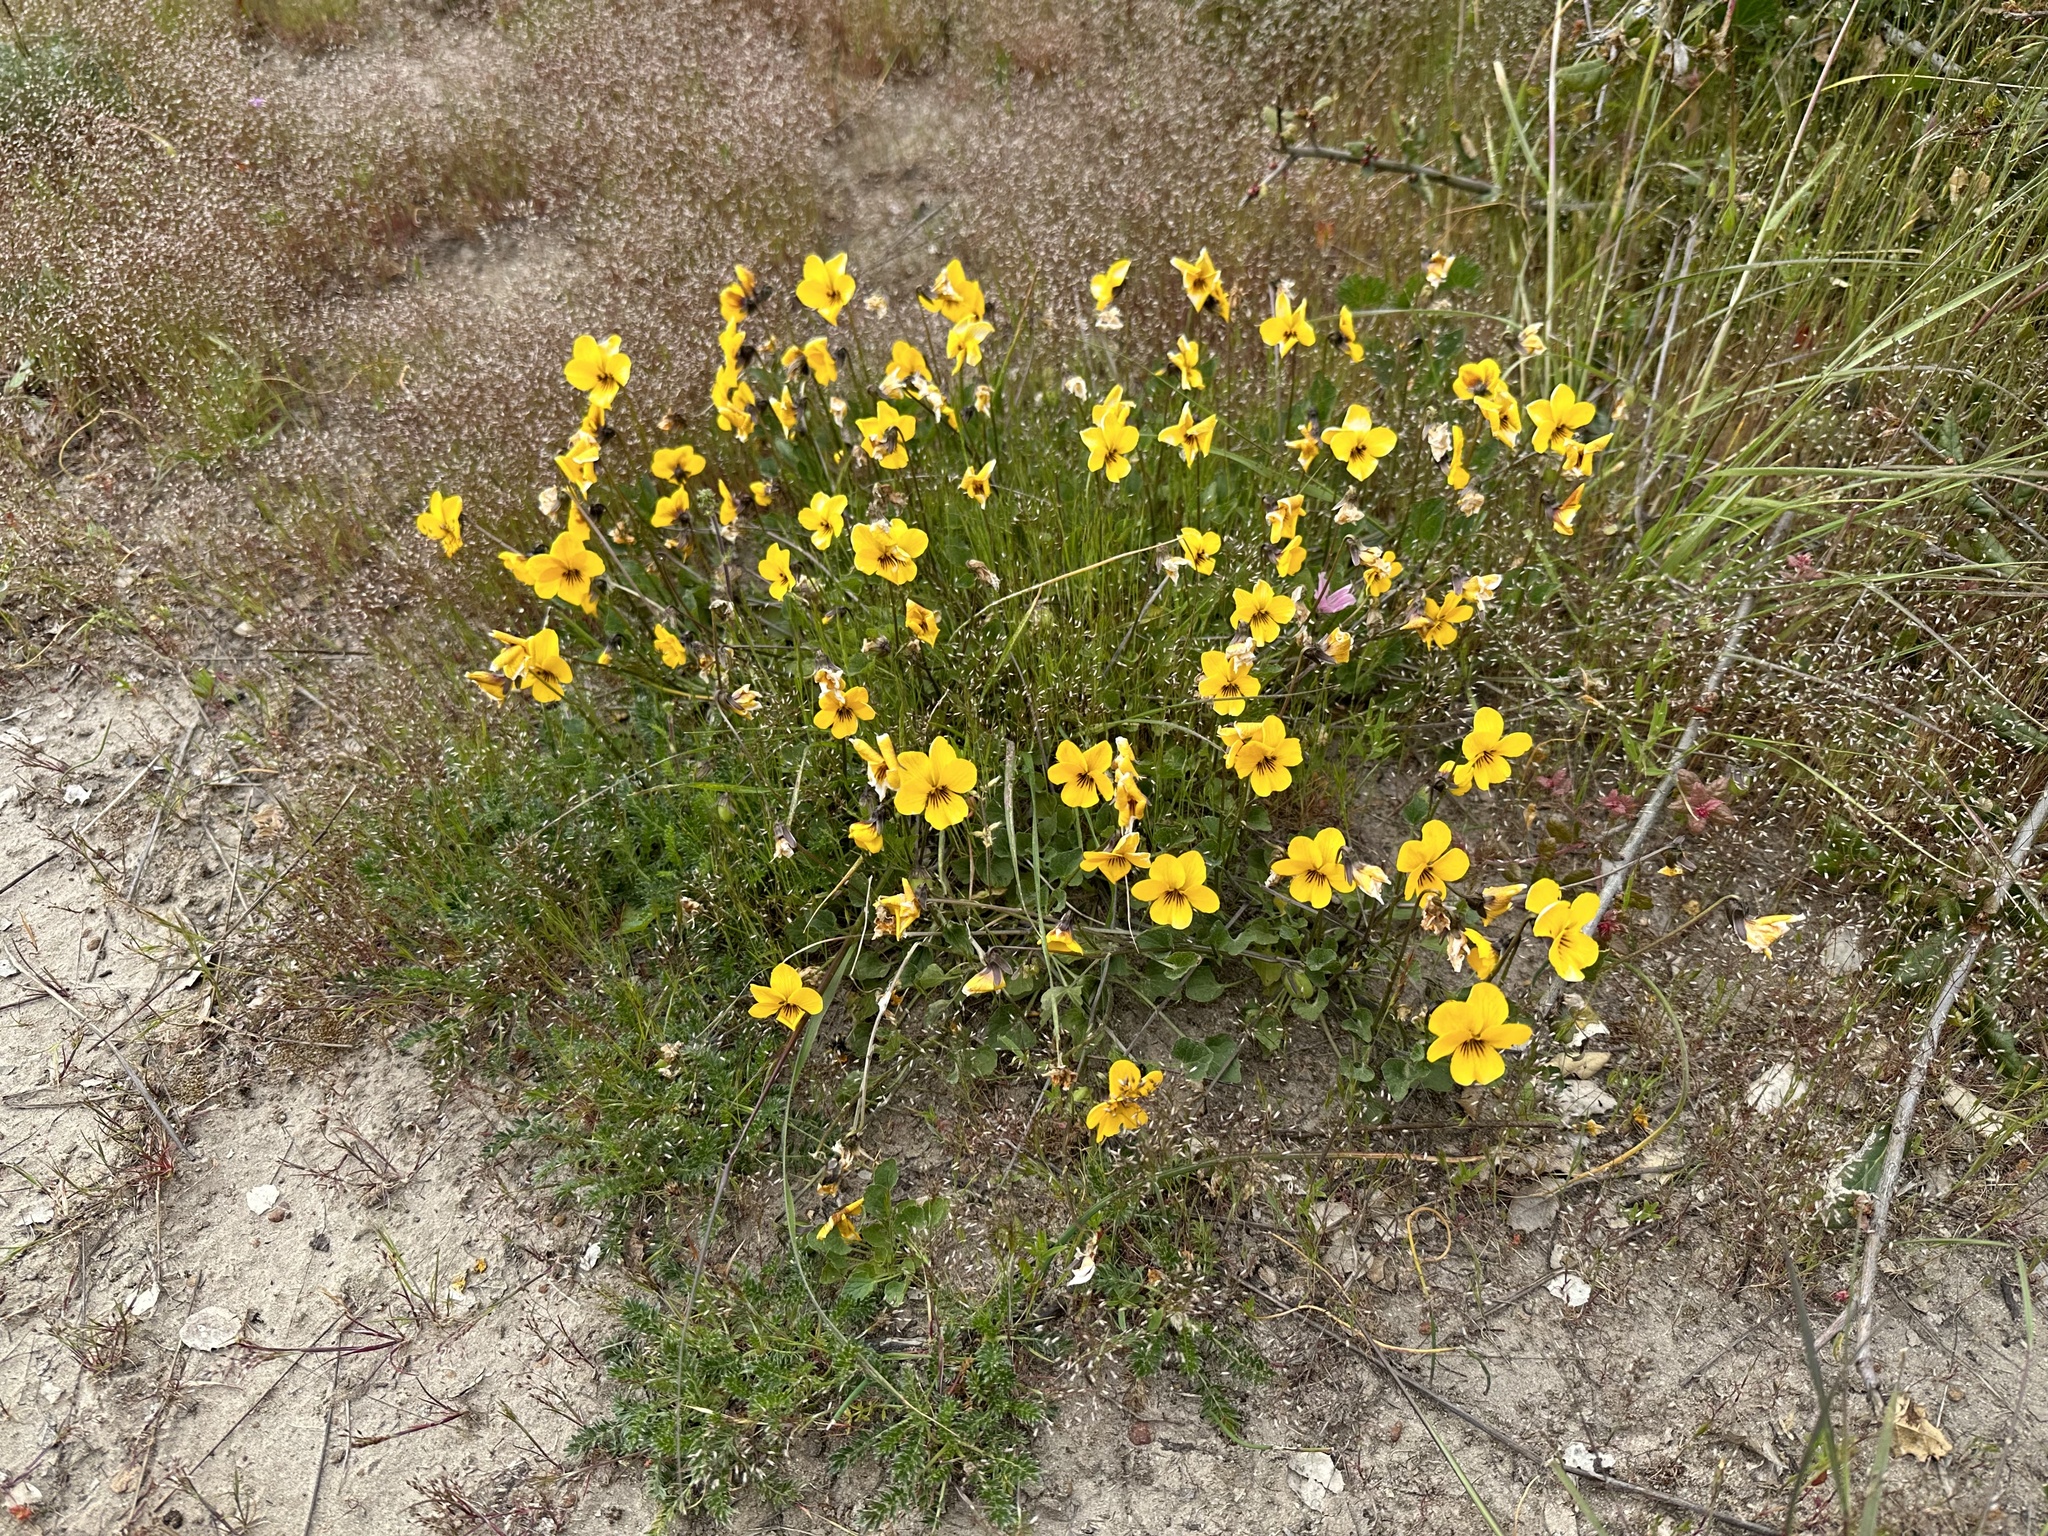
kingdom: Plantae
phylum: Tracheophyta
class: Magnoliopsida
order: Malpighiales
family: Violaceae
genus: Viola
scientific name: Viola pedunculata
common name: California golden violet
